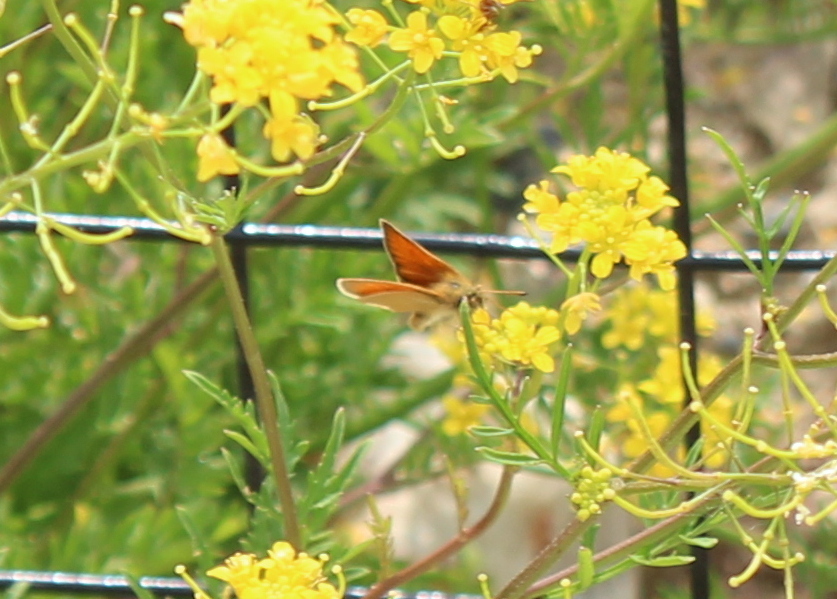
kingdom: Animalia
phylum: Arthropoda
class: Insecta
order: Lepidoptera
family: Hesperiidae
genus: Thymelicus
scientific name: Thymelicus lineola
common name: Essex skipper
